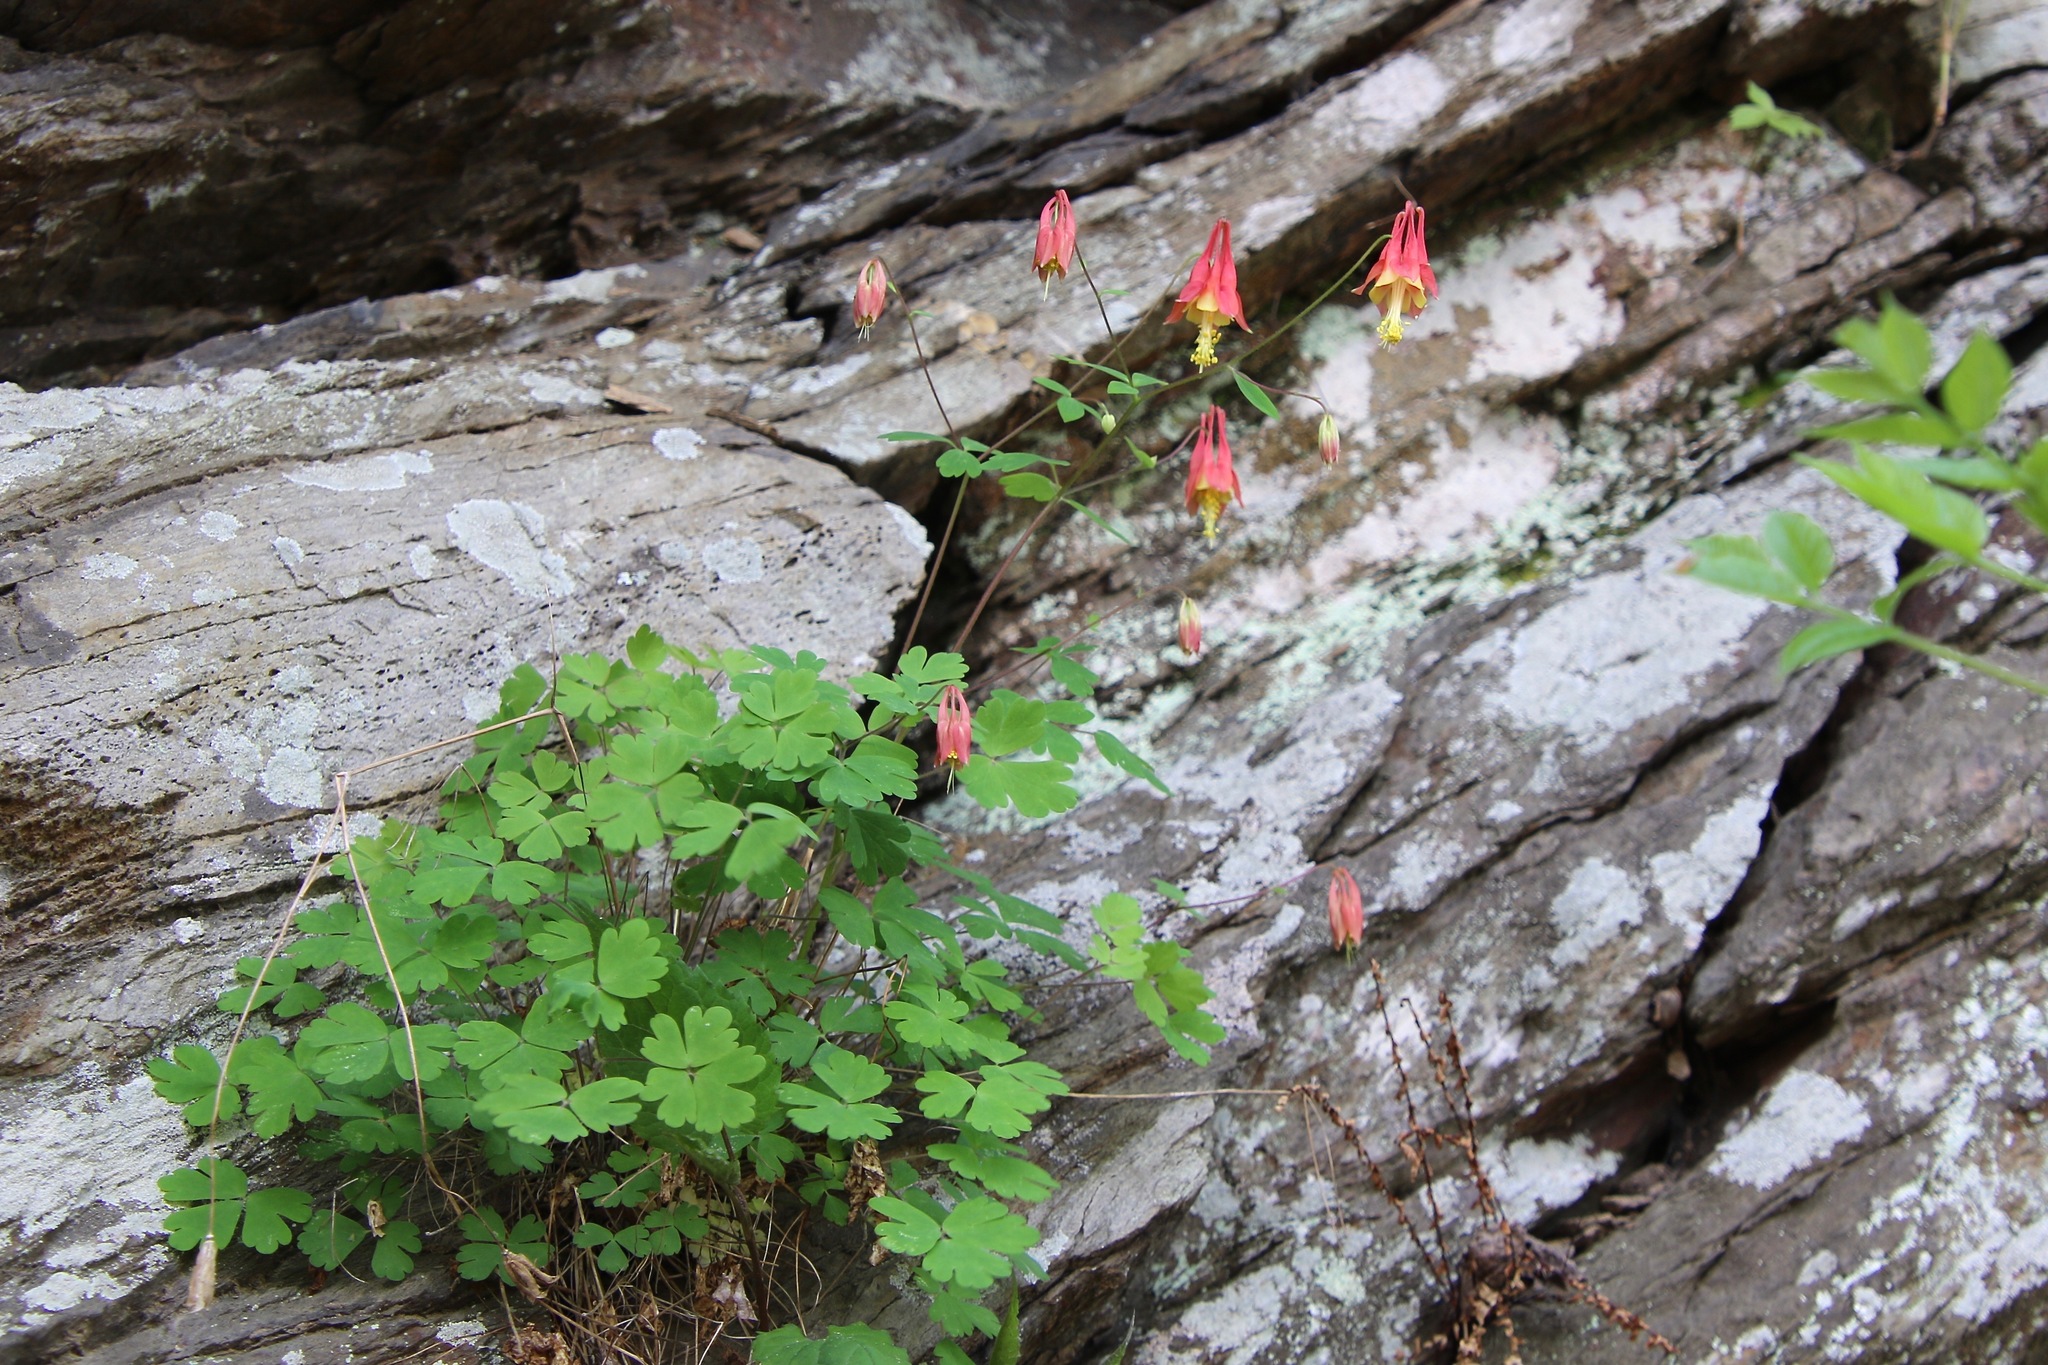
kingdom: Plantae
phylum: Tracheophyta
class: Magnoliopsida
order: Ranunculales
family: Ranunculaceae
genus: Aquilegia
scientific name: Aquilegia canadensis
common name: American columbine
